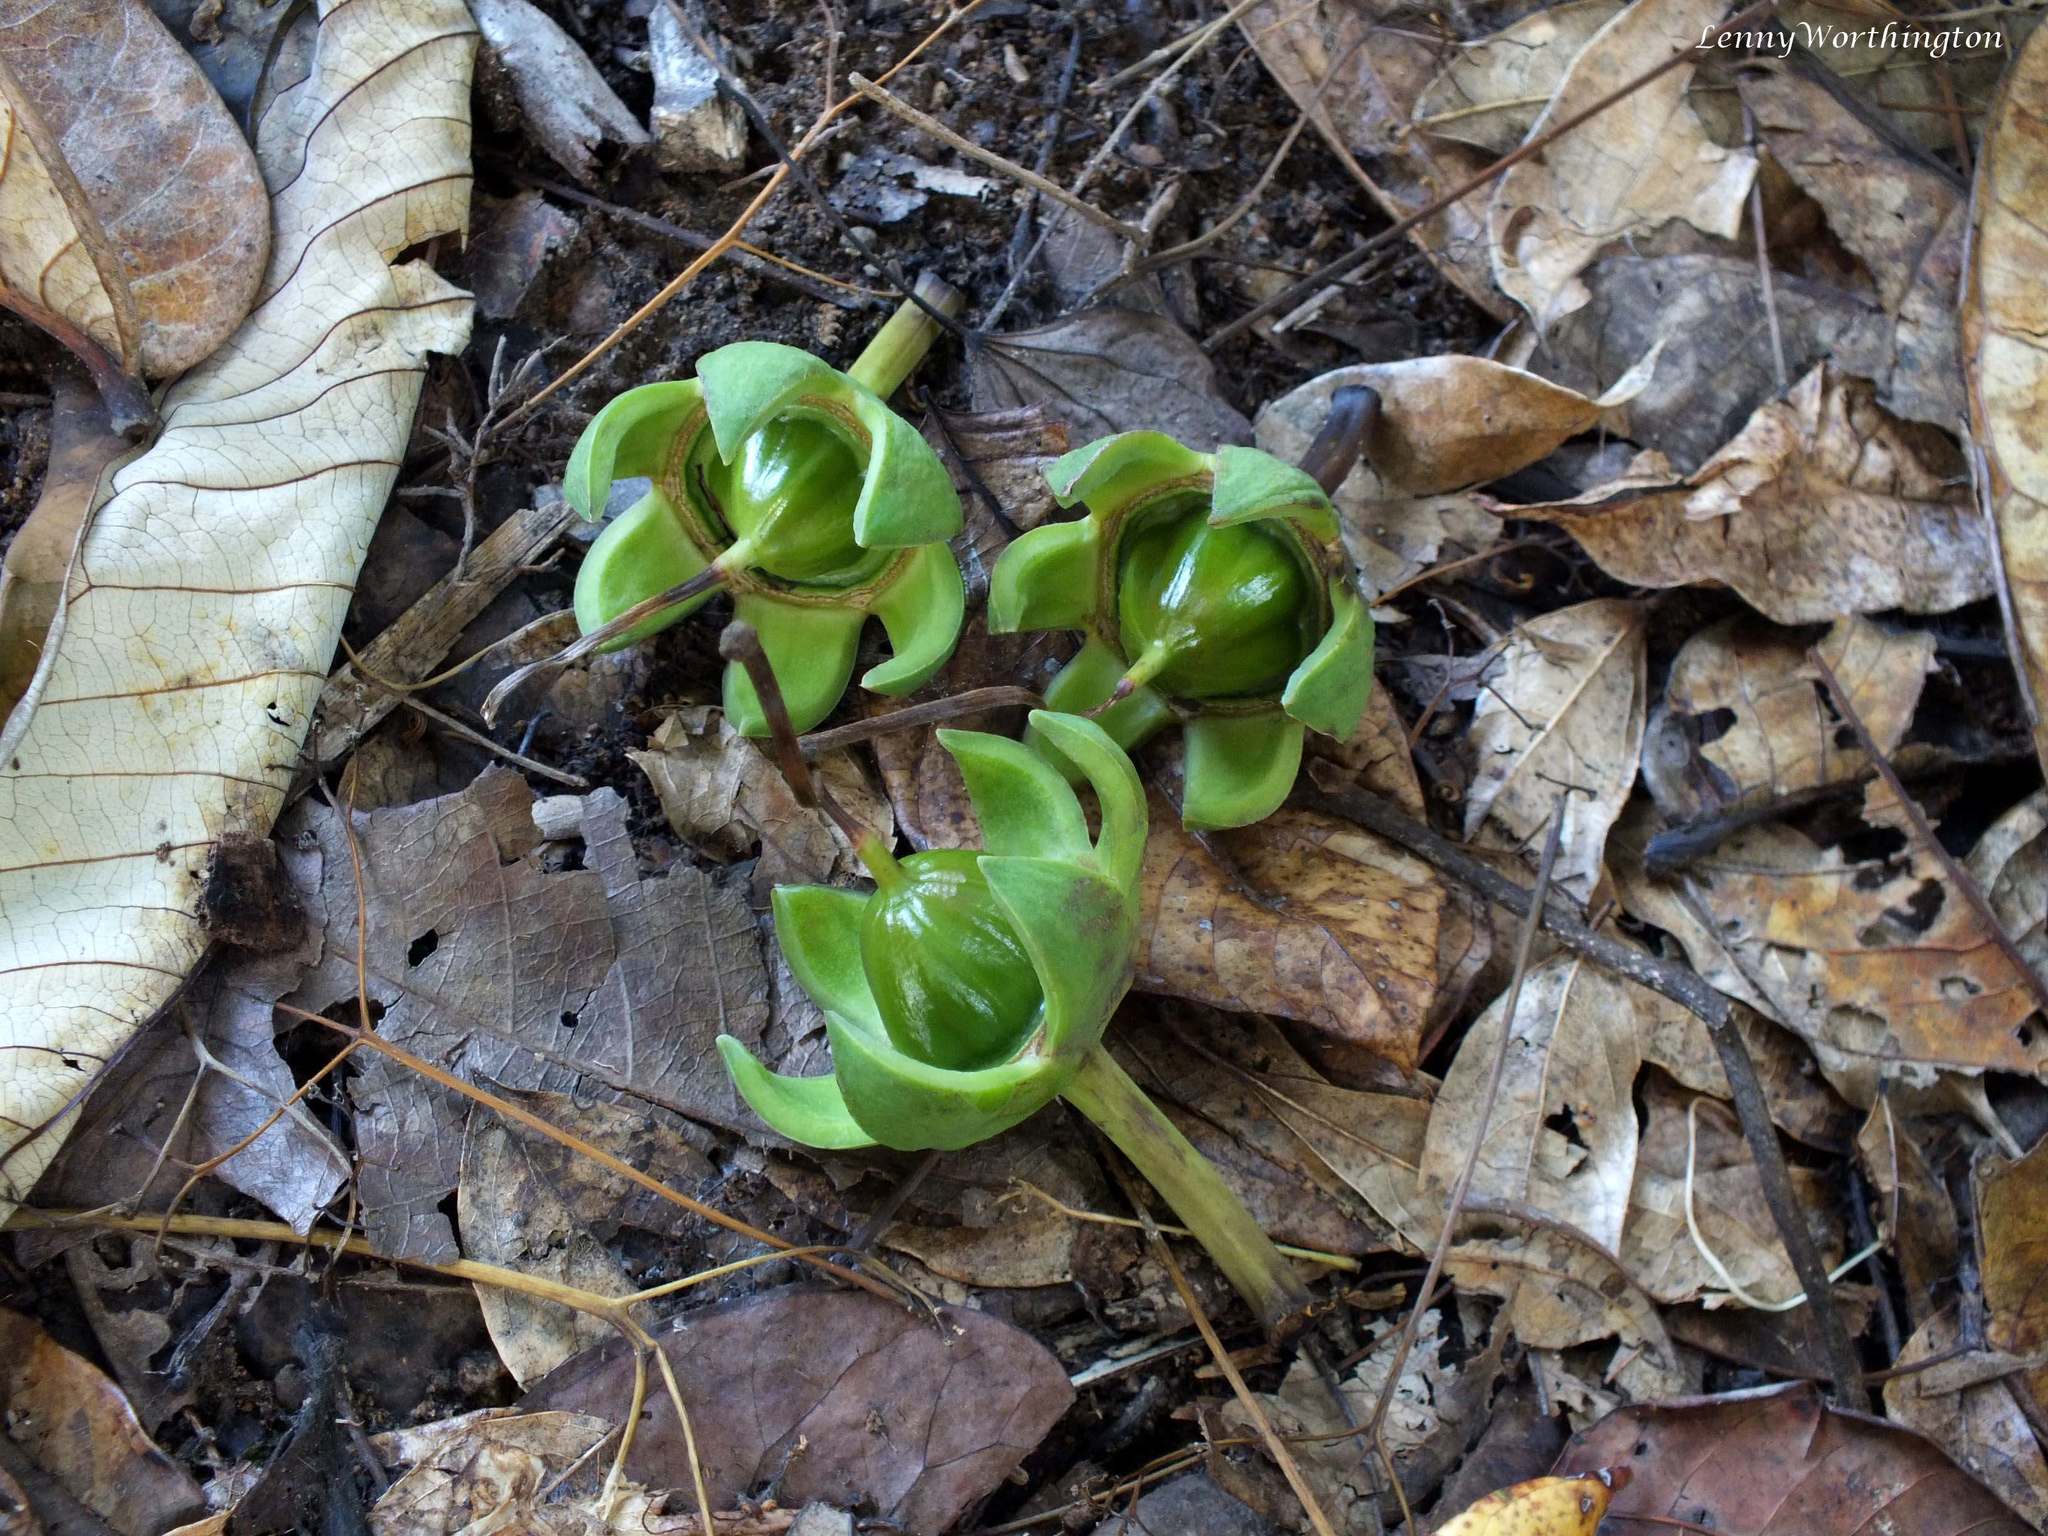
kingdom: Plantae
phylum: Tracheophyta
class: Magnoliopsida
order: Myrtales
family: Lythraceae
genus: Duabanga
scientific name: Duabanga grandiflora
